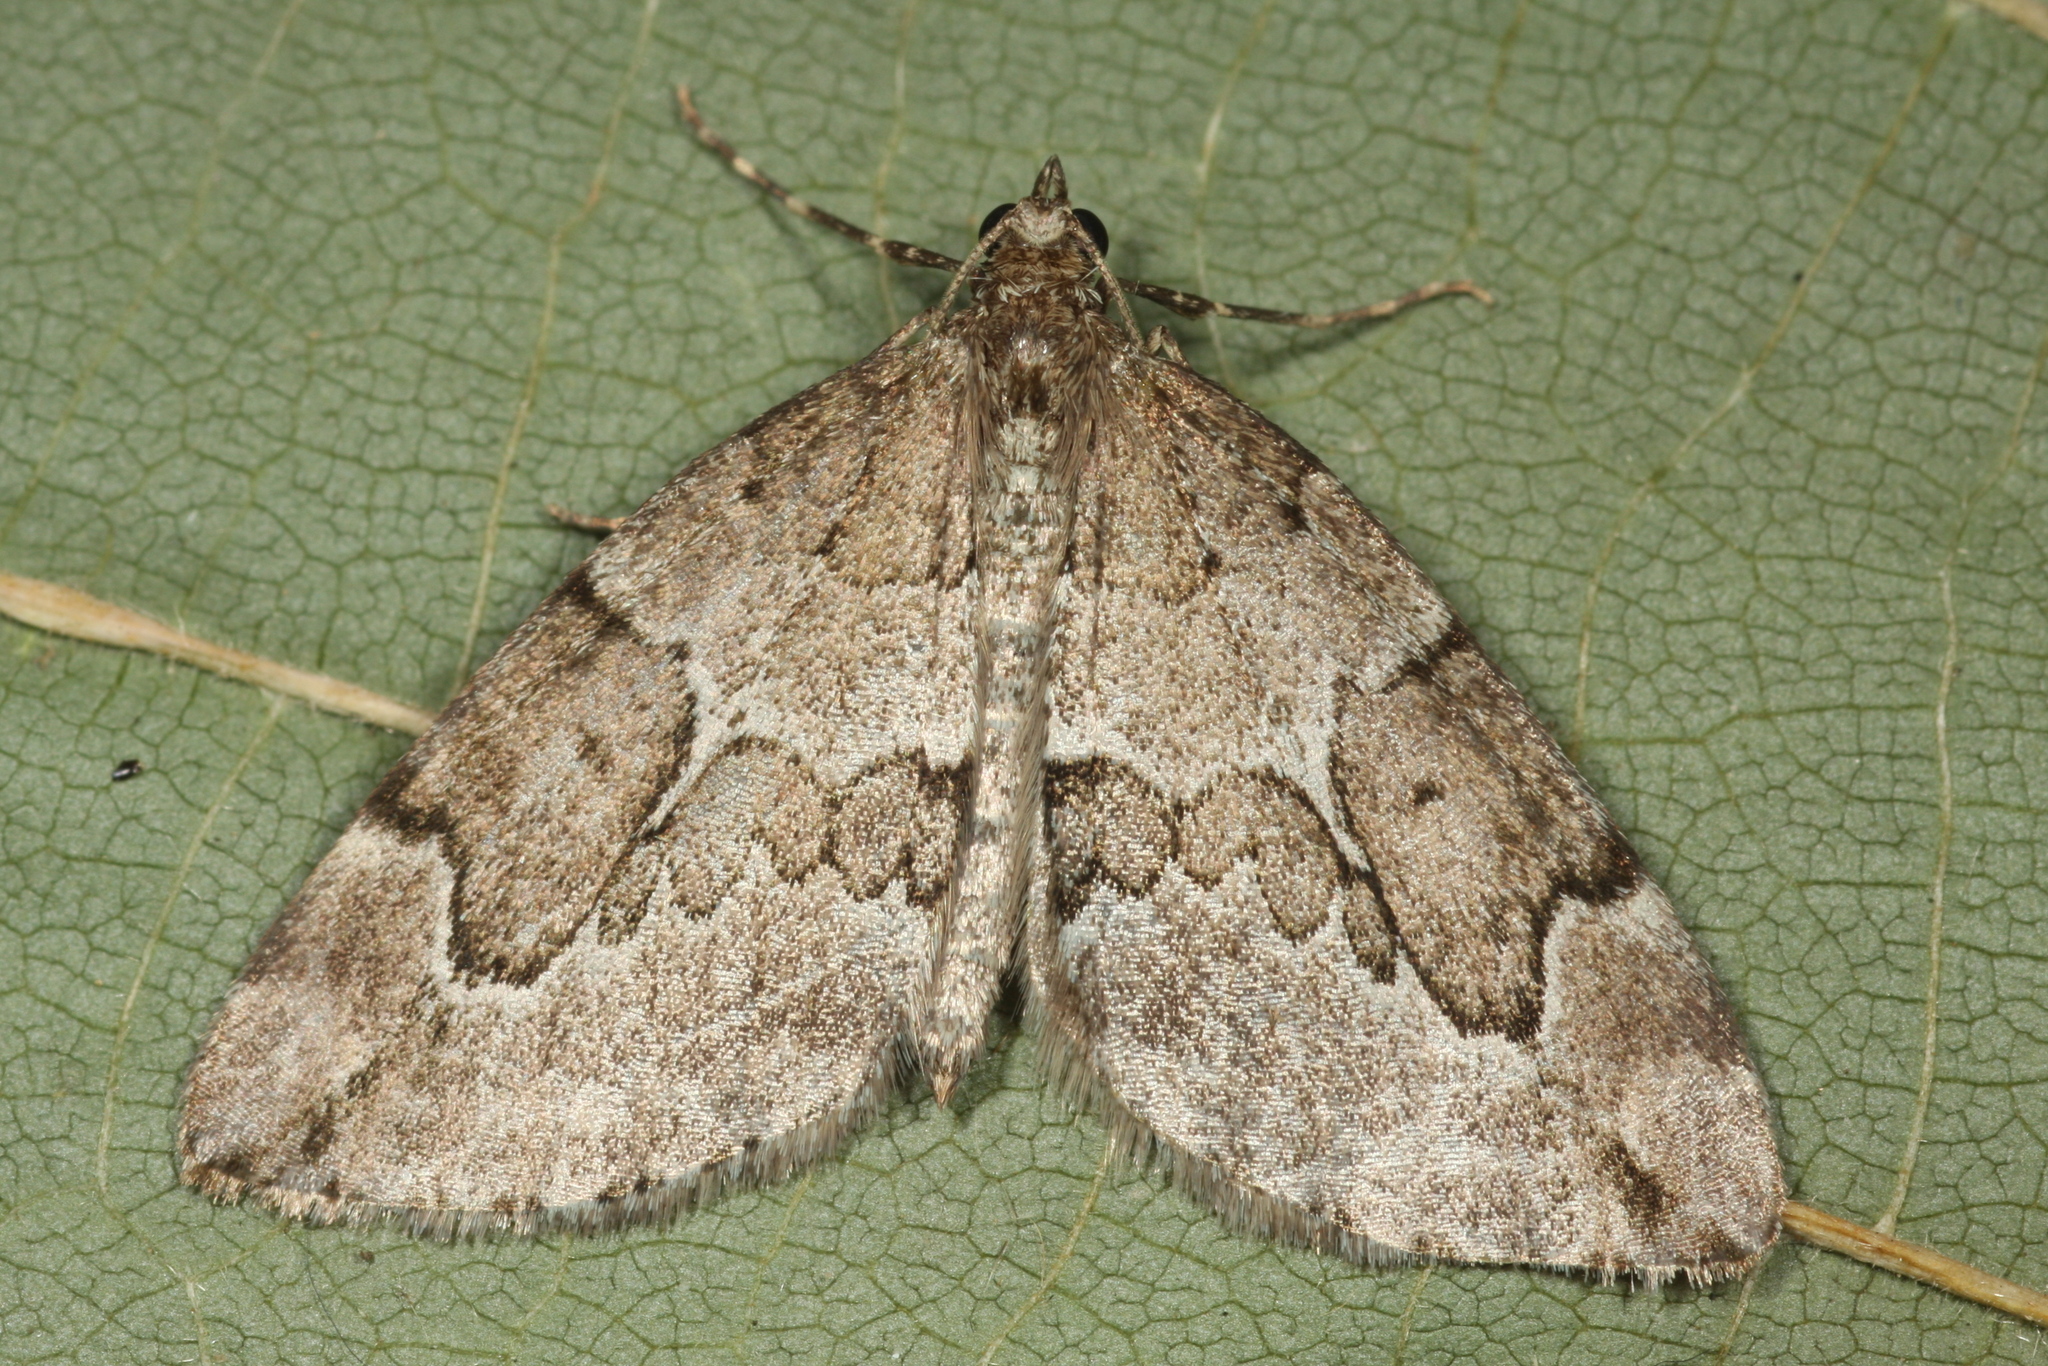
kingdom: Animalia
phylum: Arthropoda
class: Insecta
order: Lepidoptera
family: Geometridae
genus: Thera
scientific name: Thera juniperata
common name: Juniper carpet
